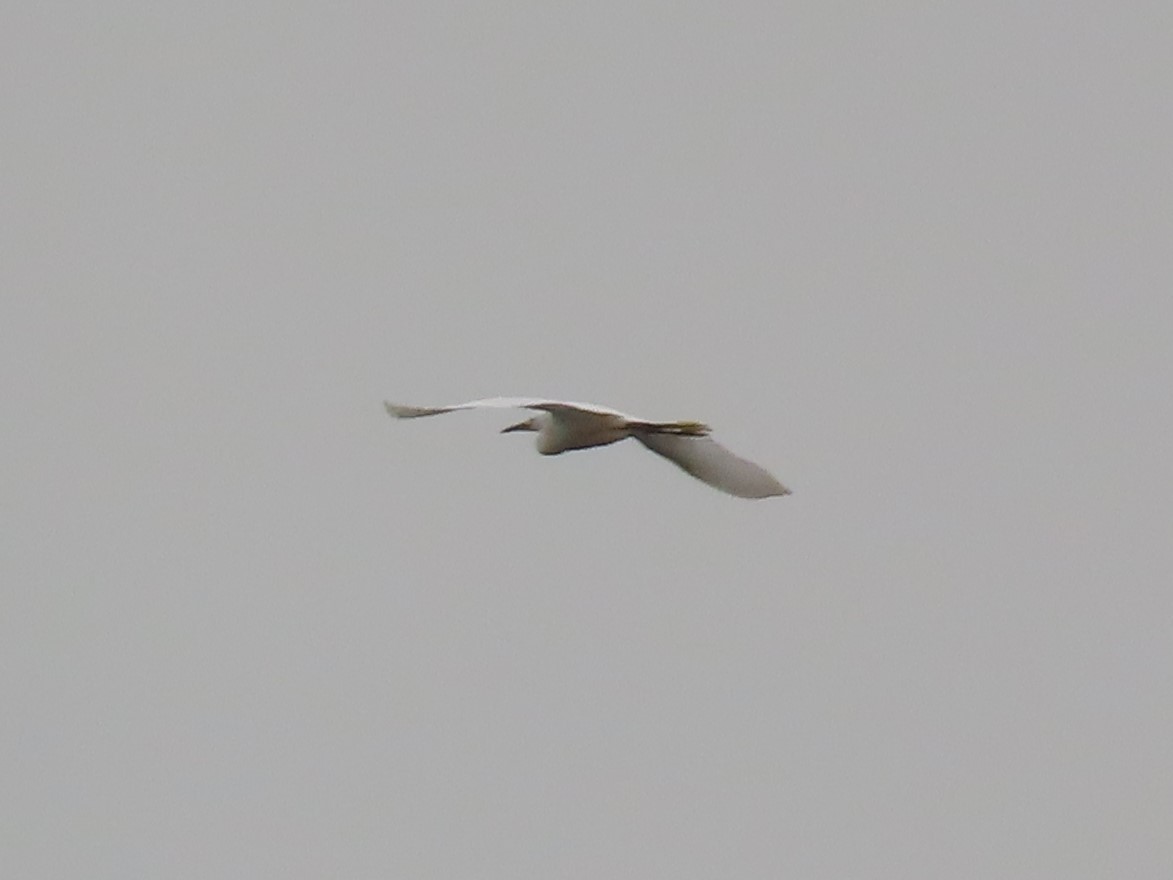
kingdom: Animalia
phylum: Chordata
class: Aves
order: Pelecaniformes
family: Ardeidae
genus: Egretta
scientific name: Egretta thula
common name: Snowy egret
